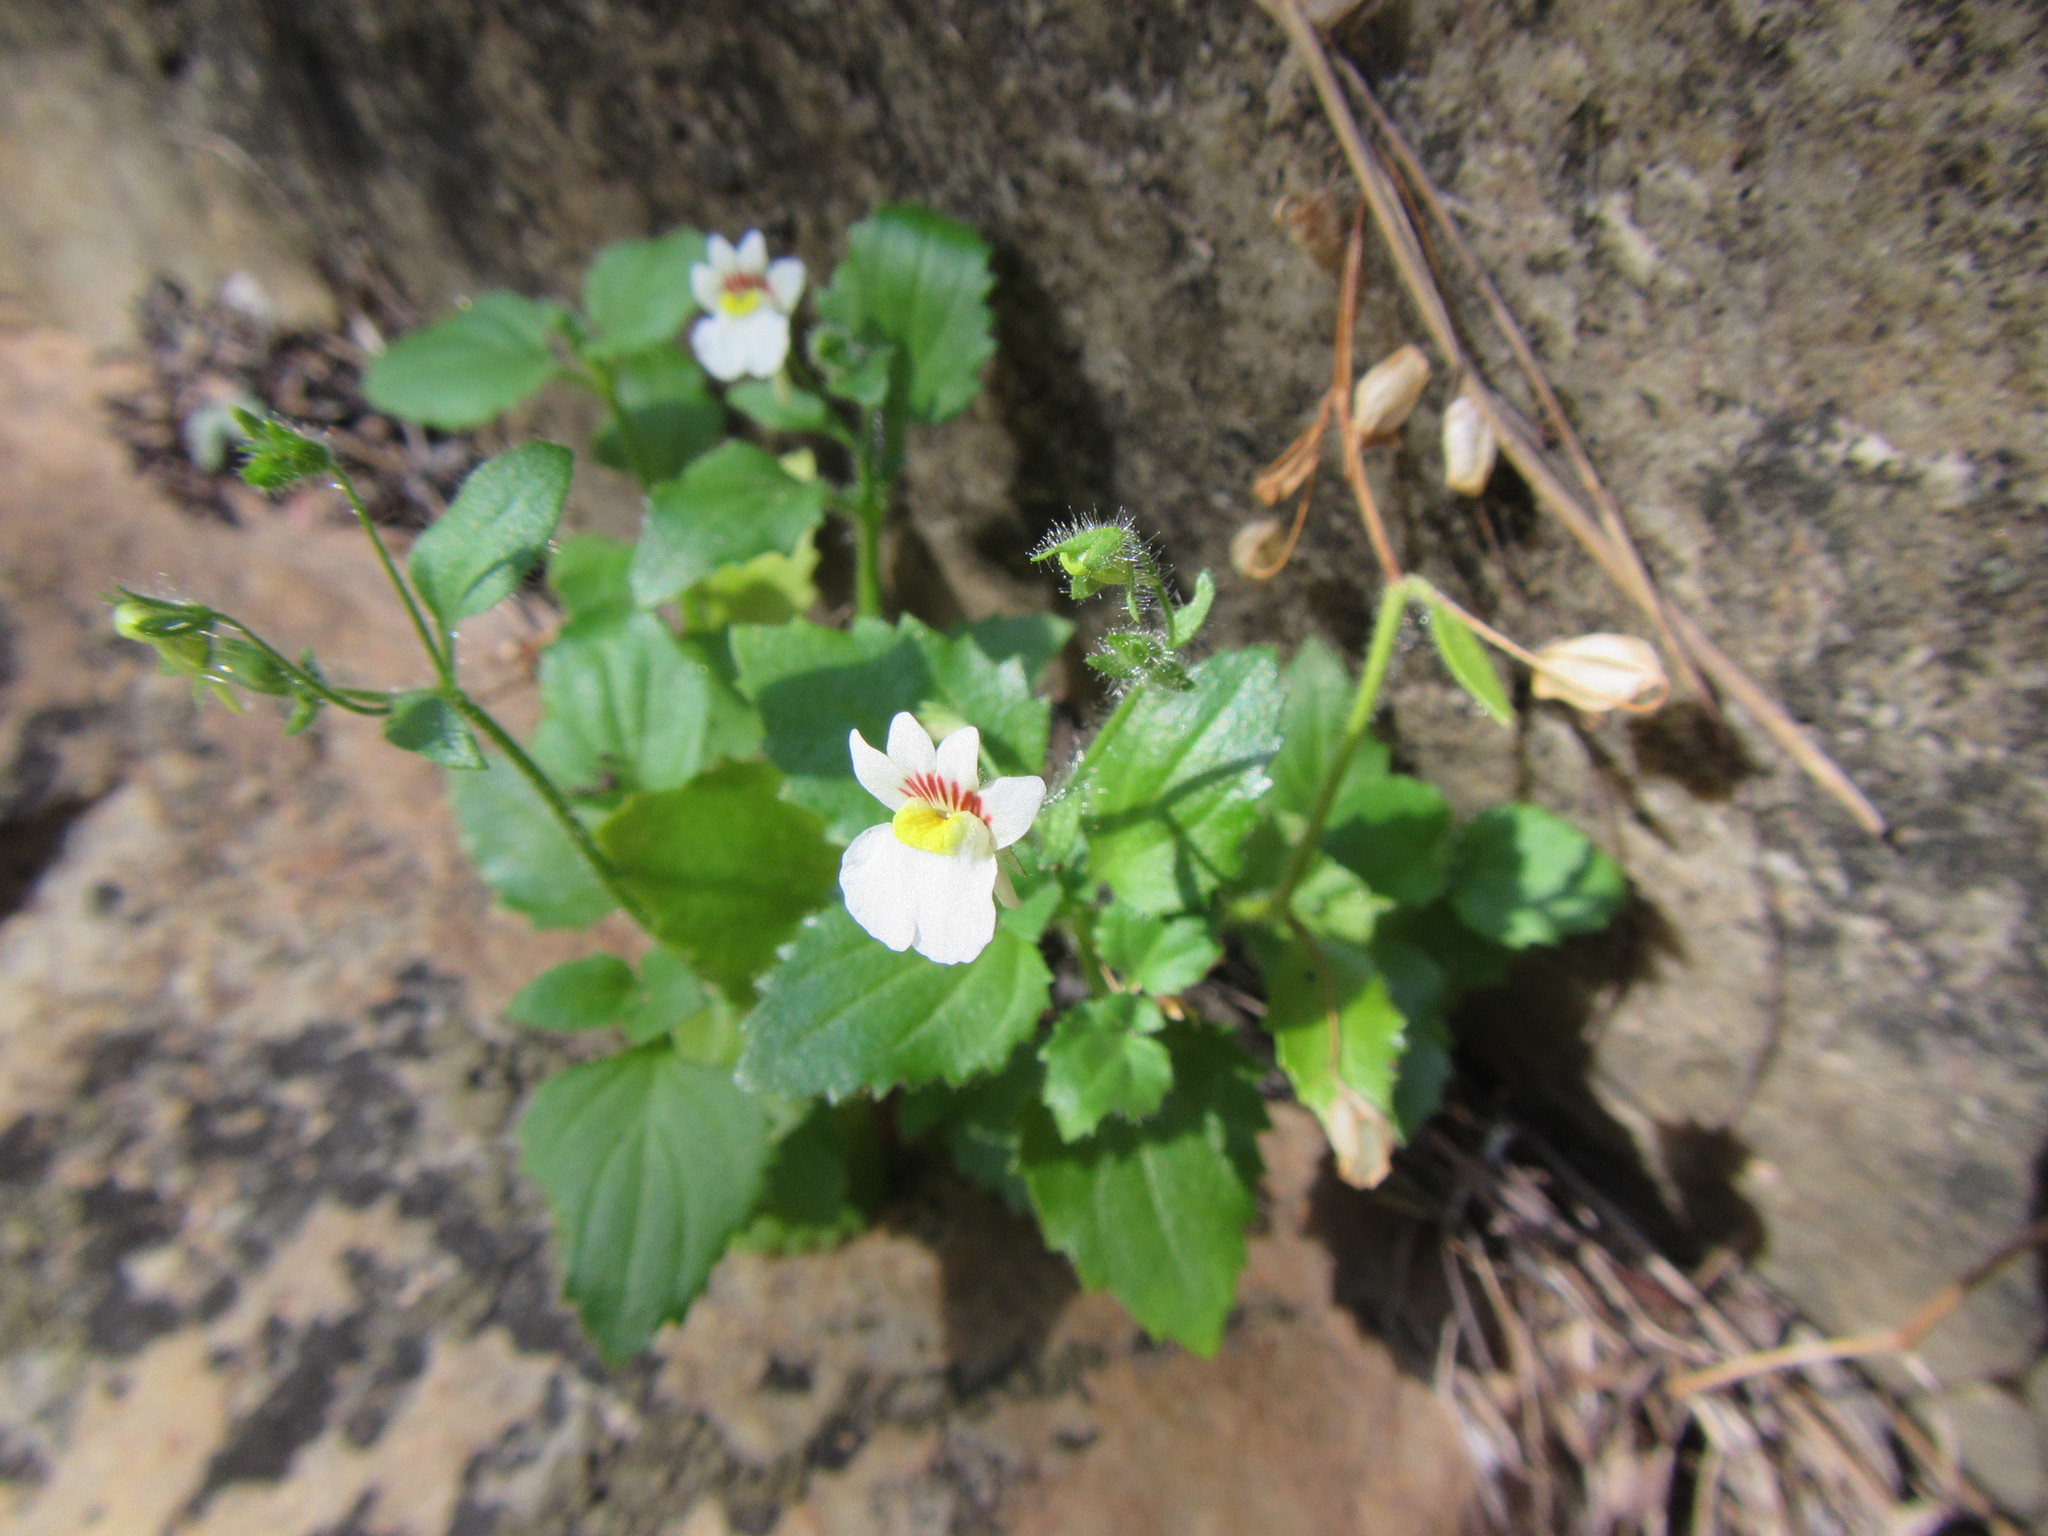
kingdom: Plantae
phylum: Tracheophyta
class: Magnoliopsida
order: Lamiales
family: Scrophulariaceae
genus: Nemesia
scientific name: Nemesia deflexa
